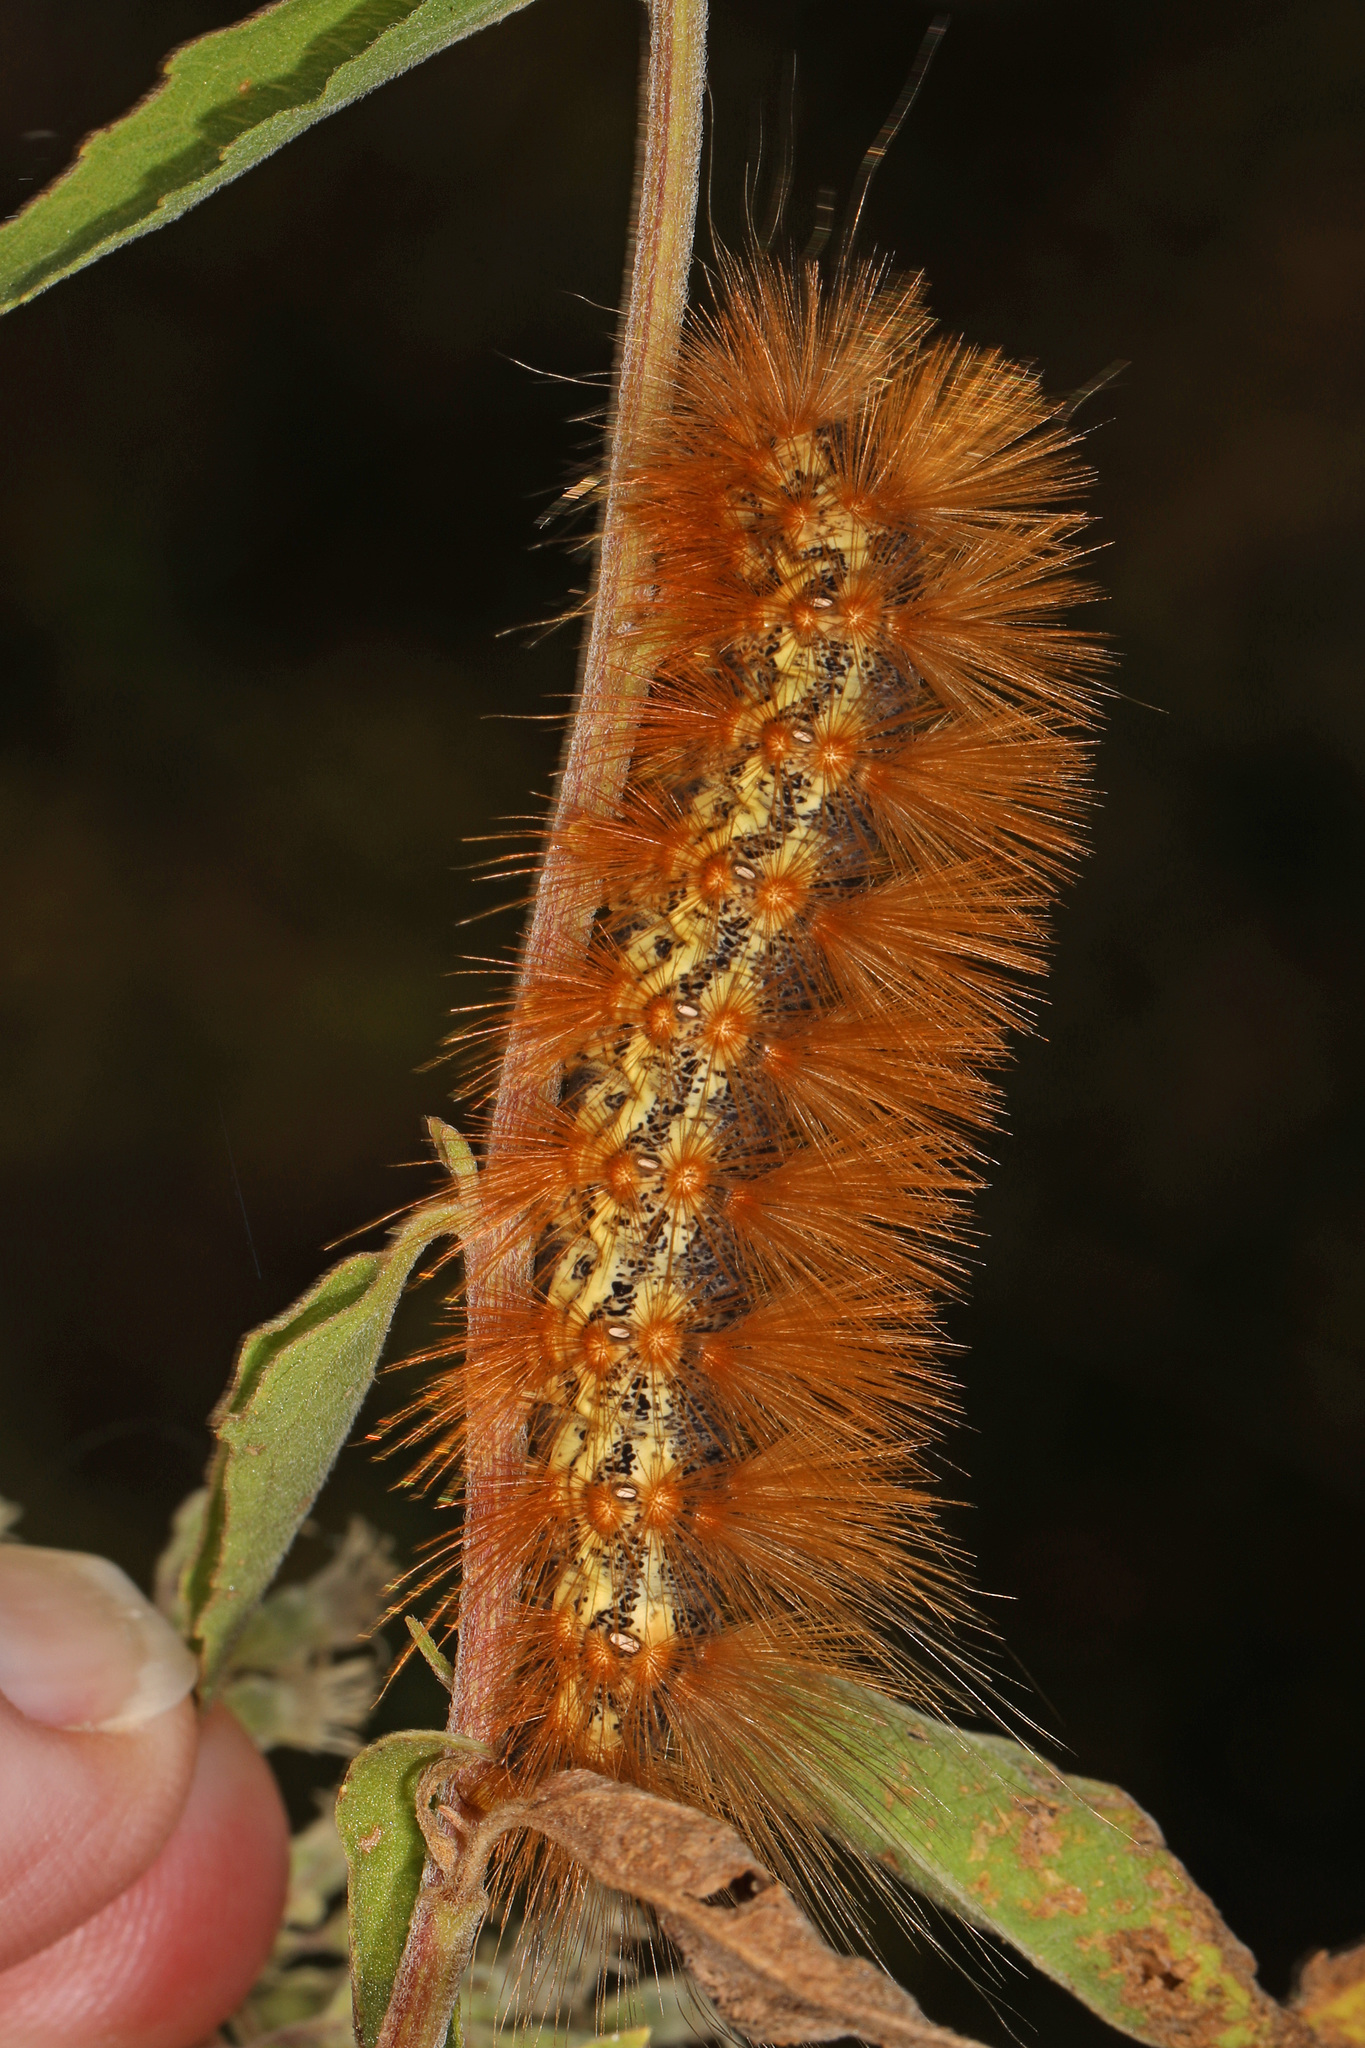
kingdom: Animalia
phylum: Arthropoda
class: Insecta
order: Lepidoptera
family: Erebidae
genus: Estigmene
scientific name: Estigmene acrea
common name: Salt marsh moth
